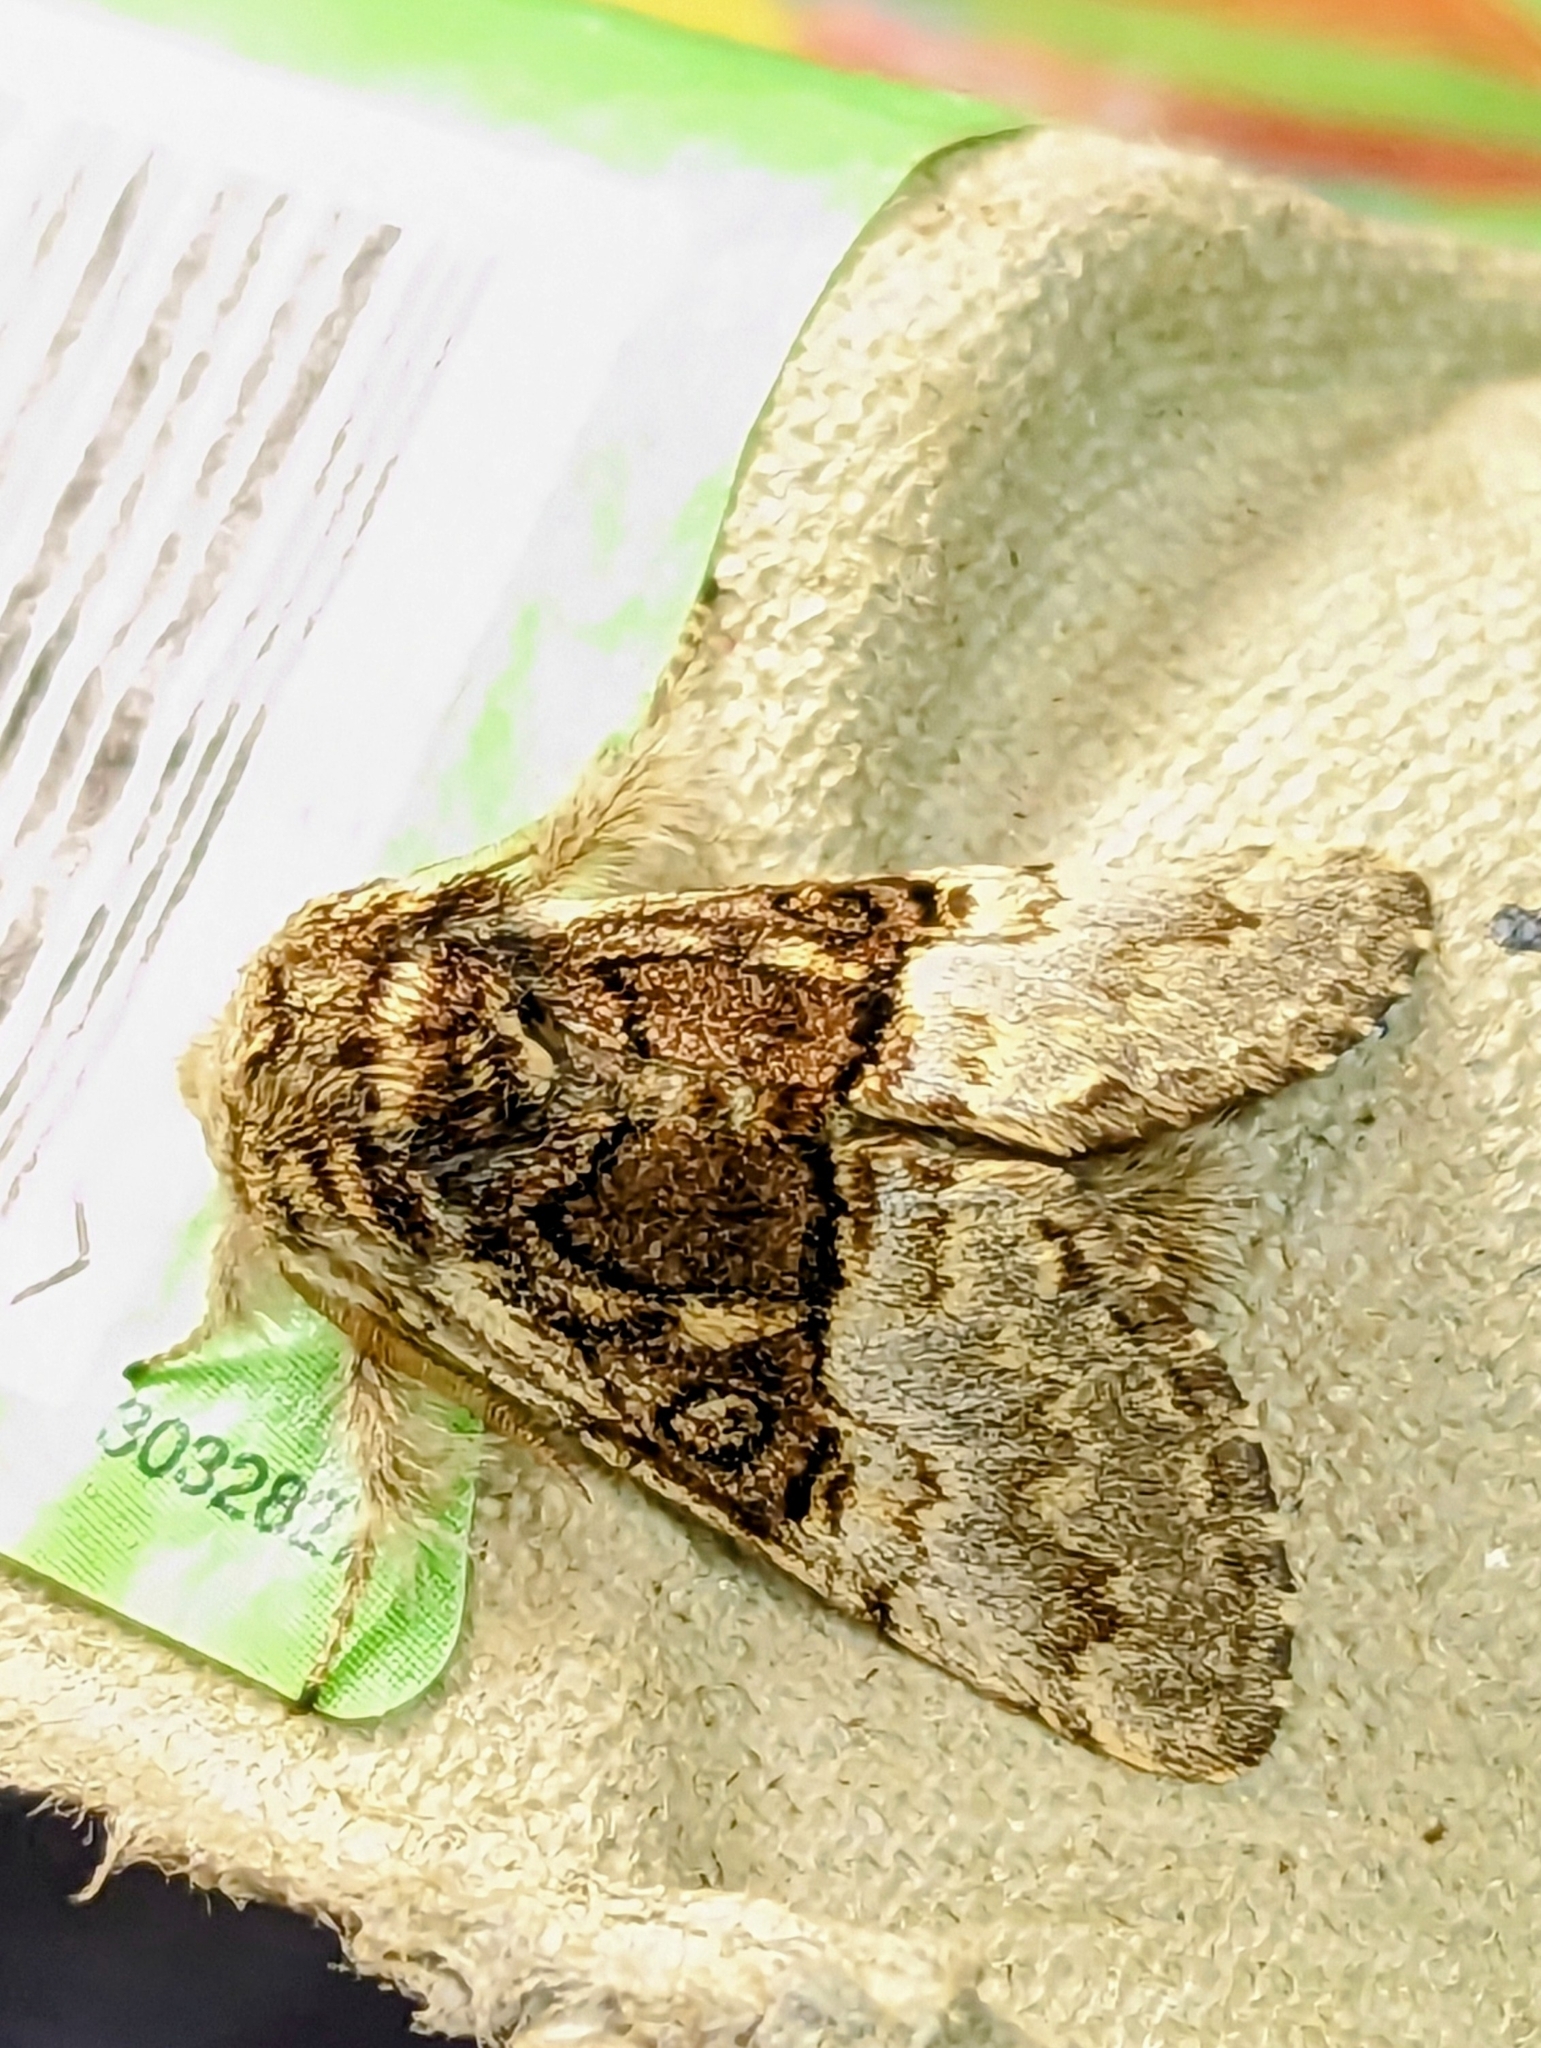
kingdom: Animalia
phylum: Arthropoda
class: Insecta
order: Lepidoptera
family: Noctuidae
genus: Colocasia
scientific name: Colocasia coryli
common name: Nut-tree tussock
